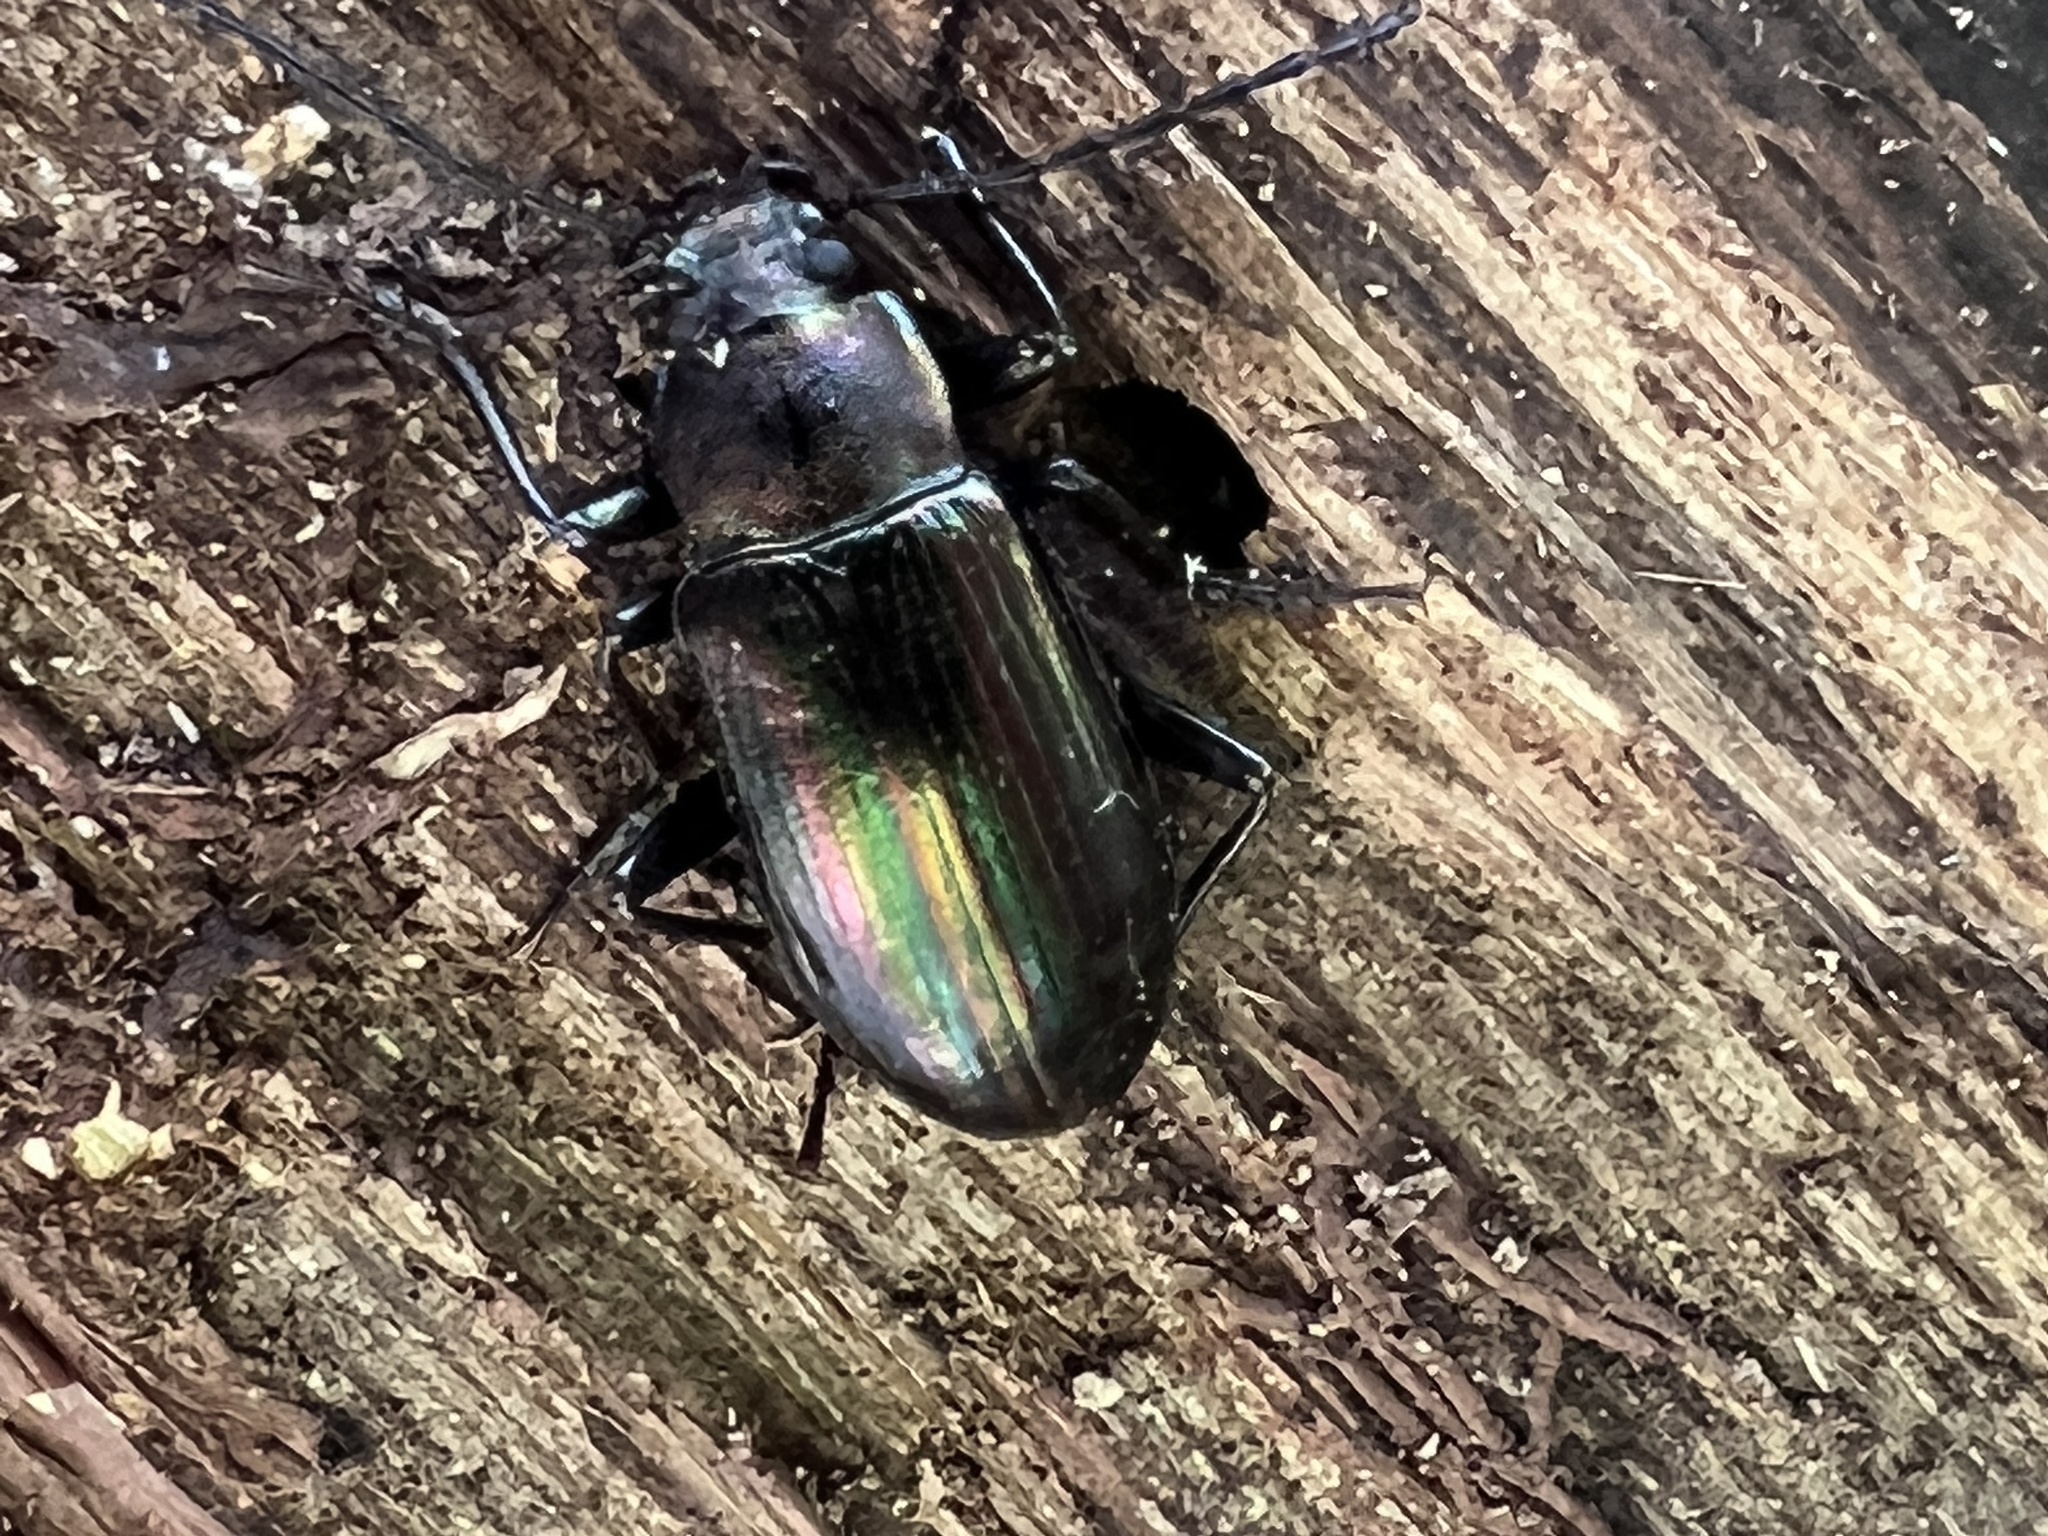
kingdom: Animalia
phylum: Arthropoda
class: Insecta
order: Coleoptera
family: Tenebrionidae
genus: Tarpela
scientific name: Tarpela micans
